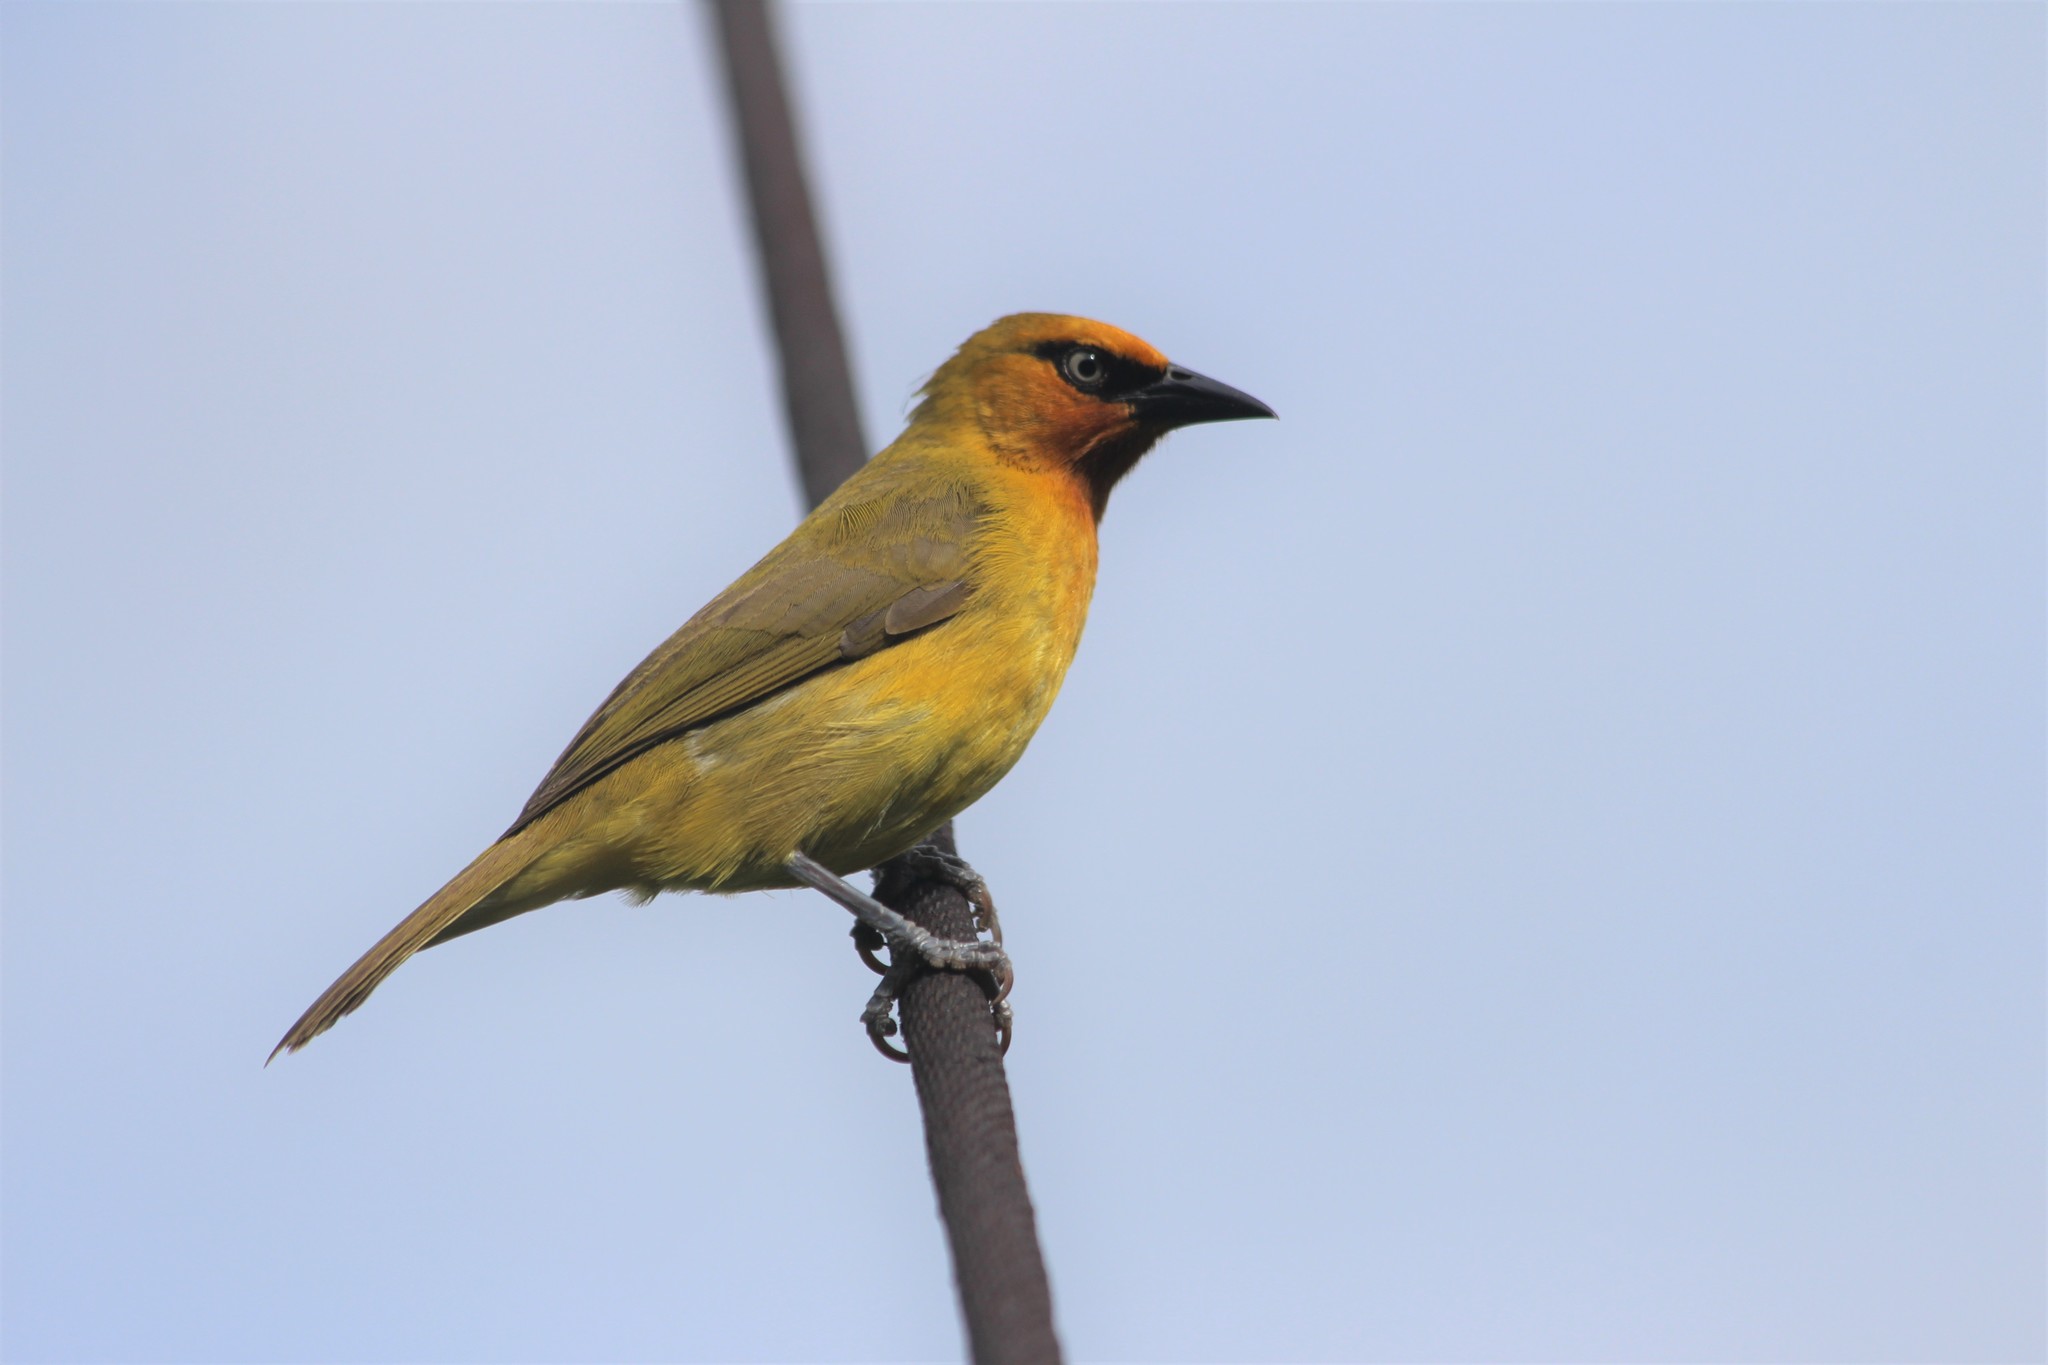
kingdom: Animalia
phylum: Chordata
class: Aves
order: Passeriformes
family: Ploceidae
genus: Ploceus
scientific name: Ploceus ocularis
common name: Spectacled weaver
